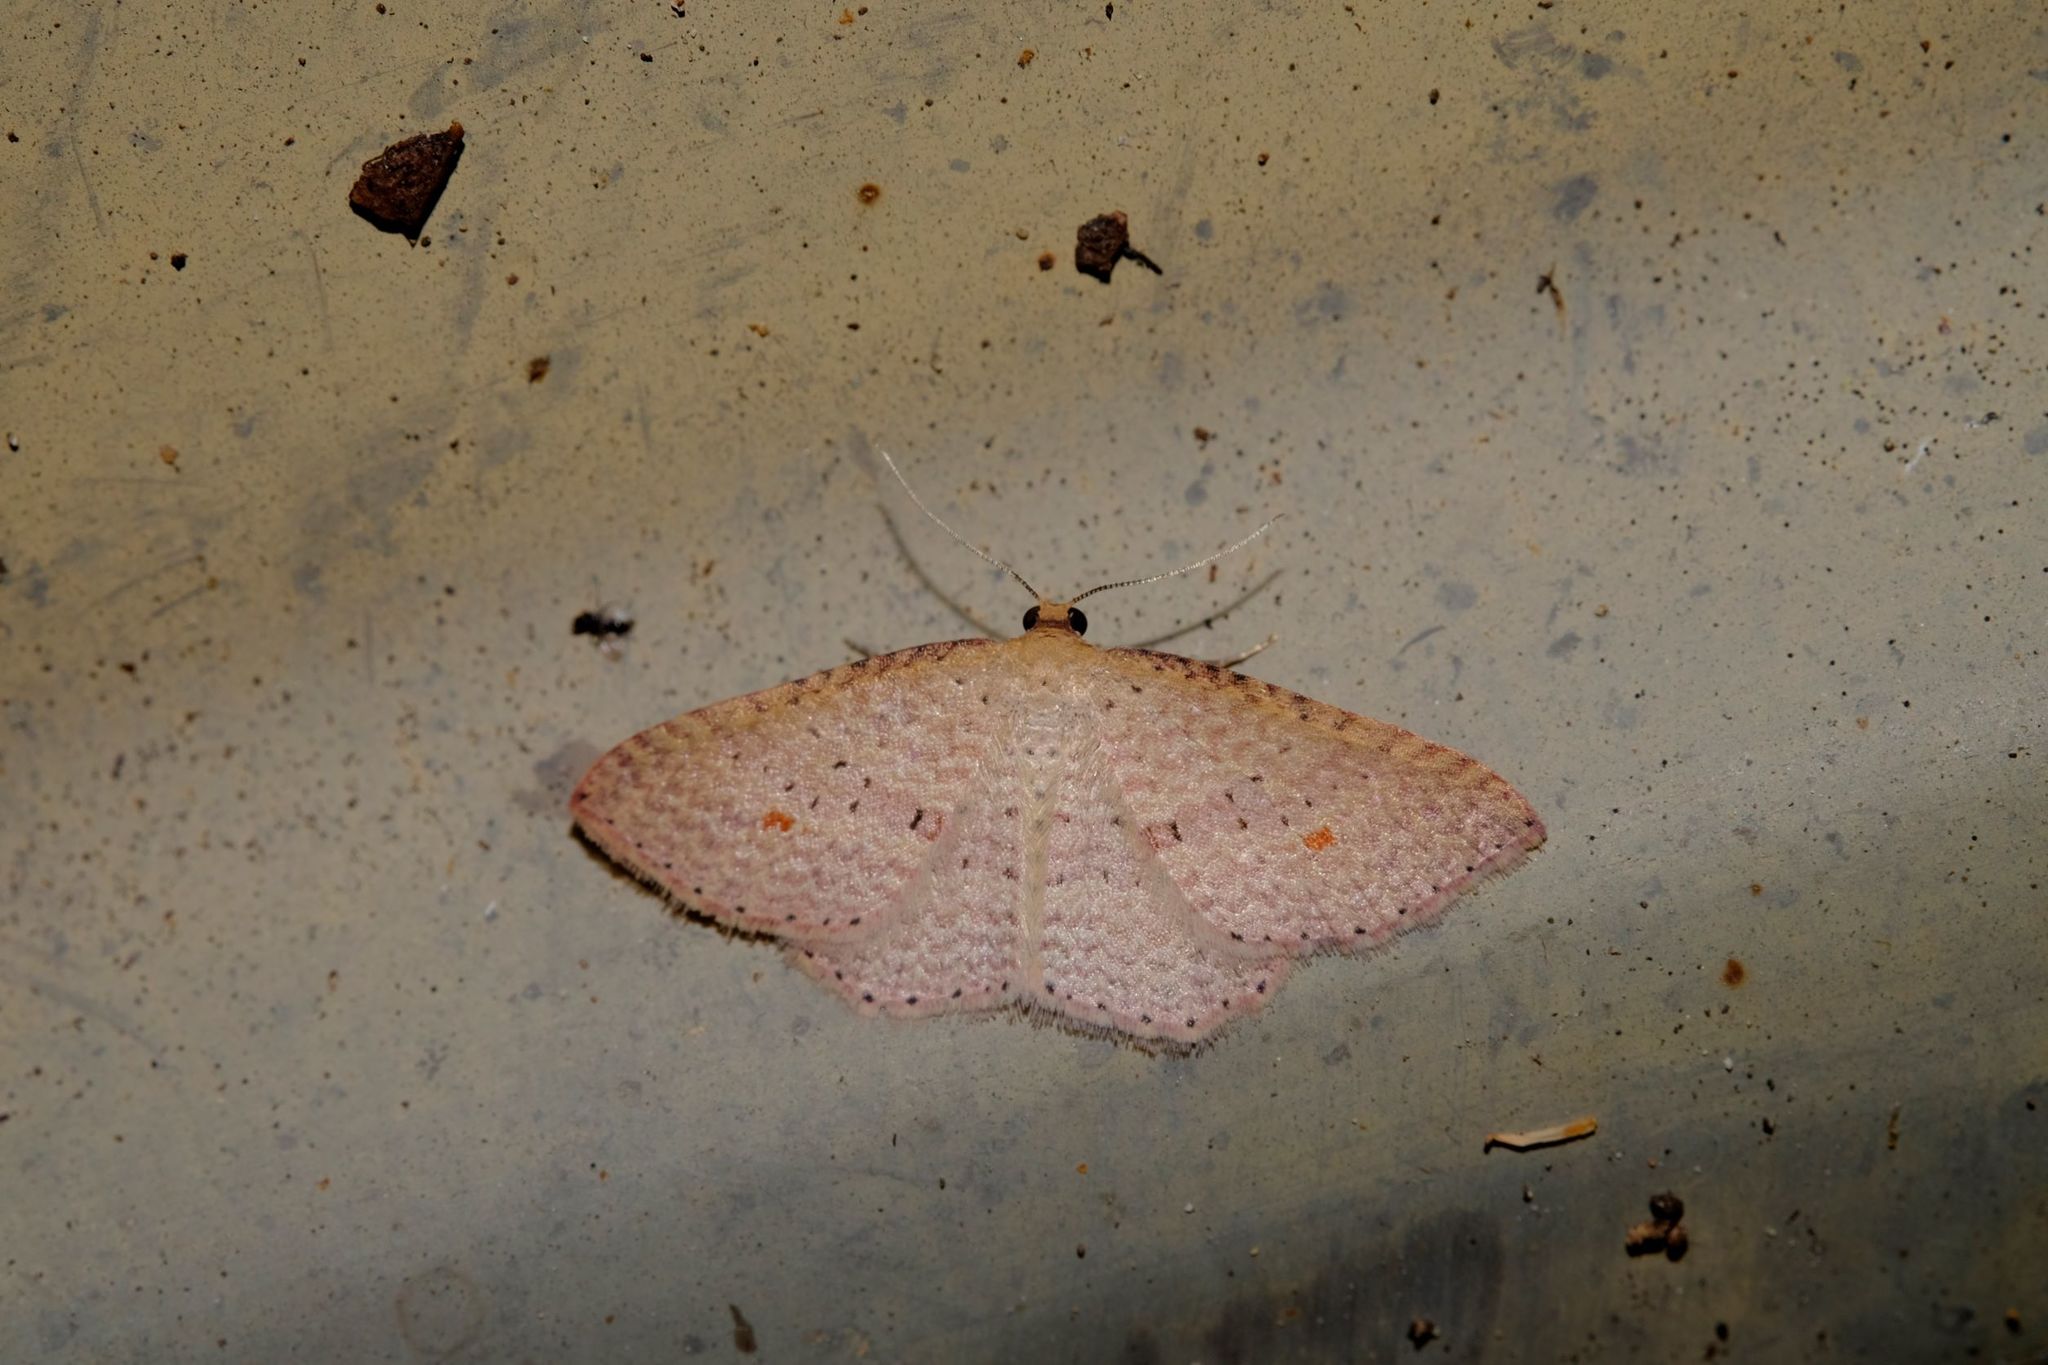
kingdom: Animalia
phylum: Arthropoda
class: Insecta
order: Lepidoptera
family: Geometridae
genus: Epicyme
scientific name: Epicyme rubropunctaria
